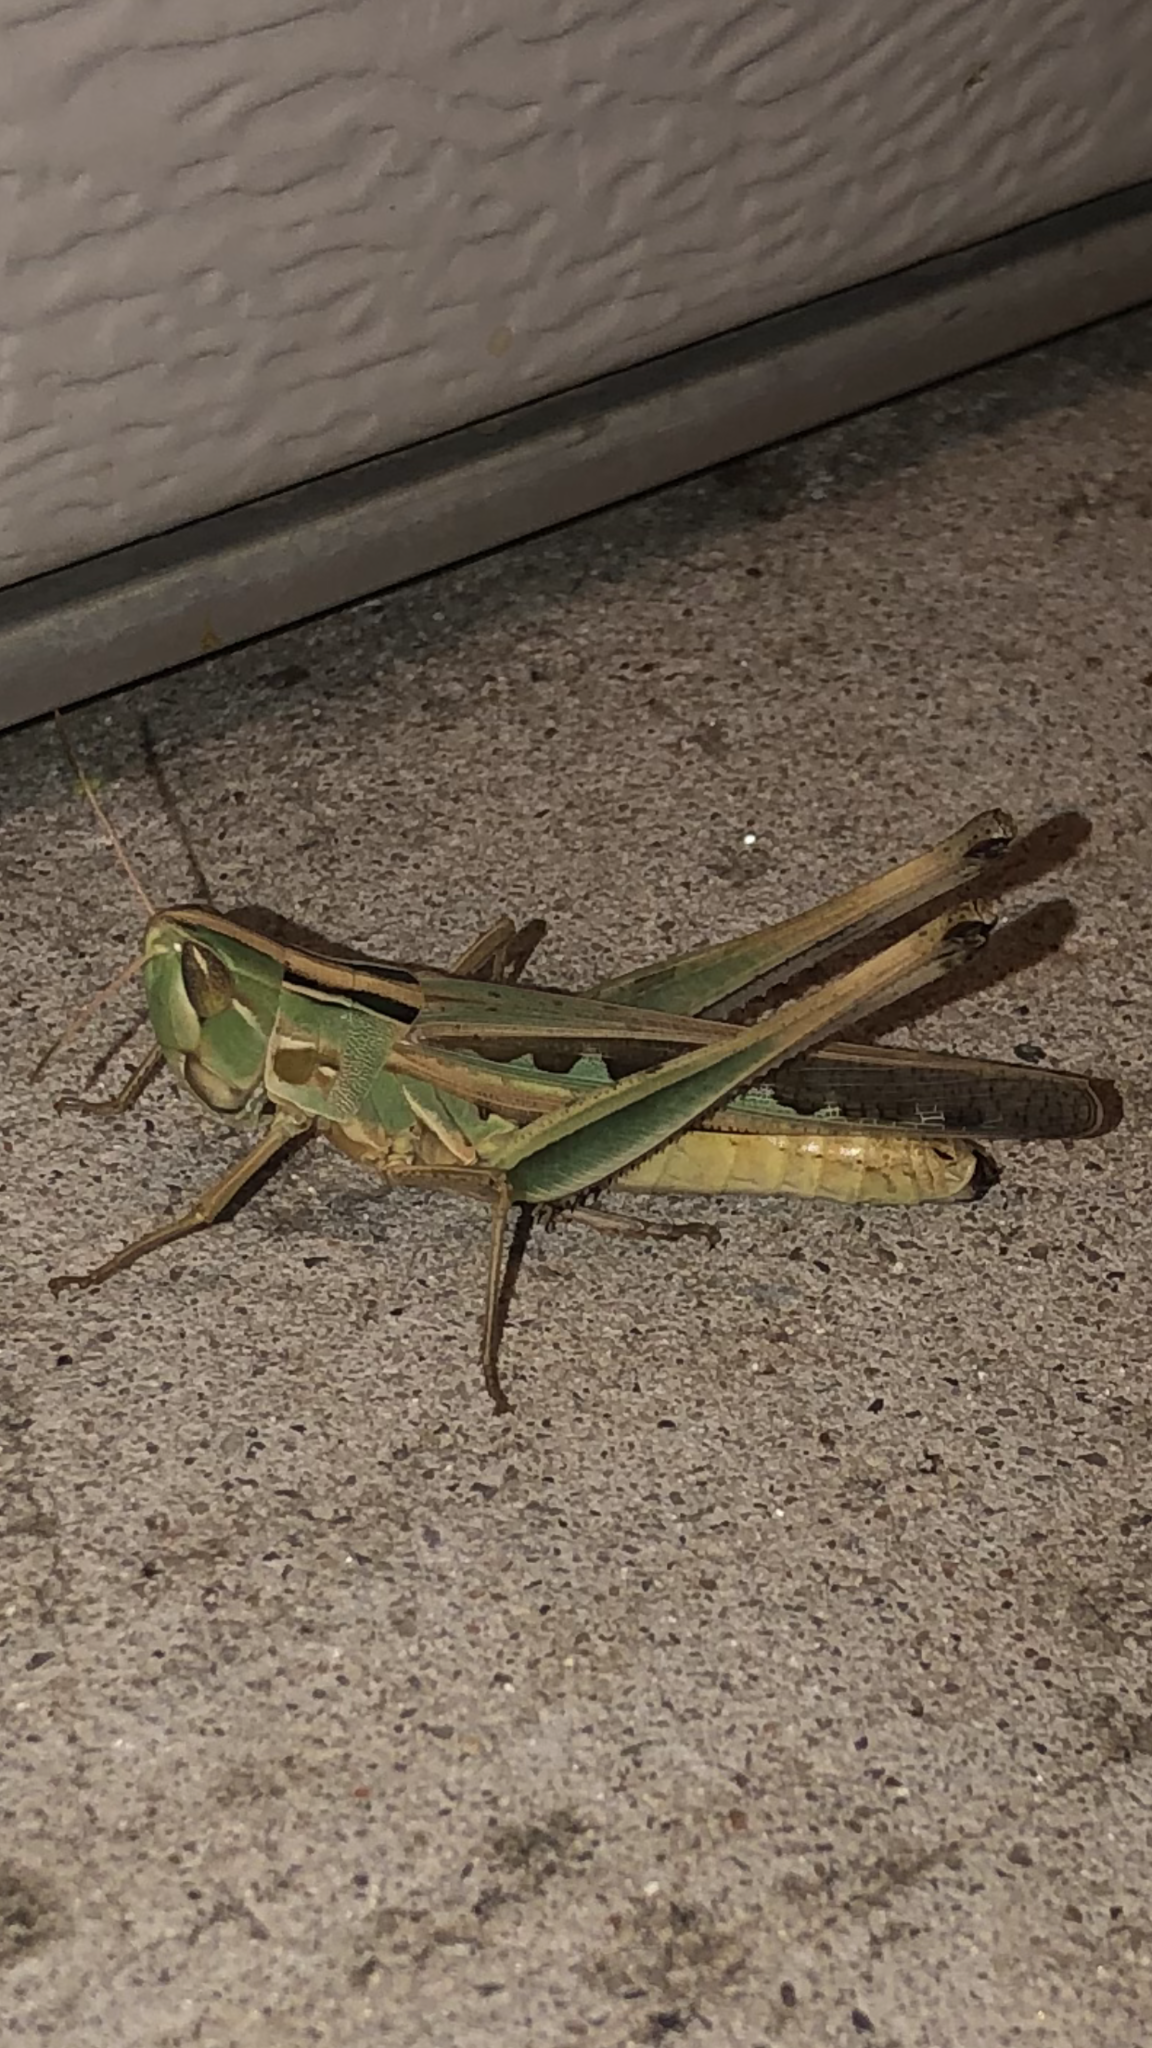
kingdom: Animalia
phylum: Arthropoda
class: Insecta
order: Orthoptera
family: Acrididae
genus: Syrbula
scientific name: Syrbula admirabilis
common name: Handsome grasshopper
